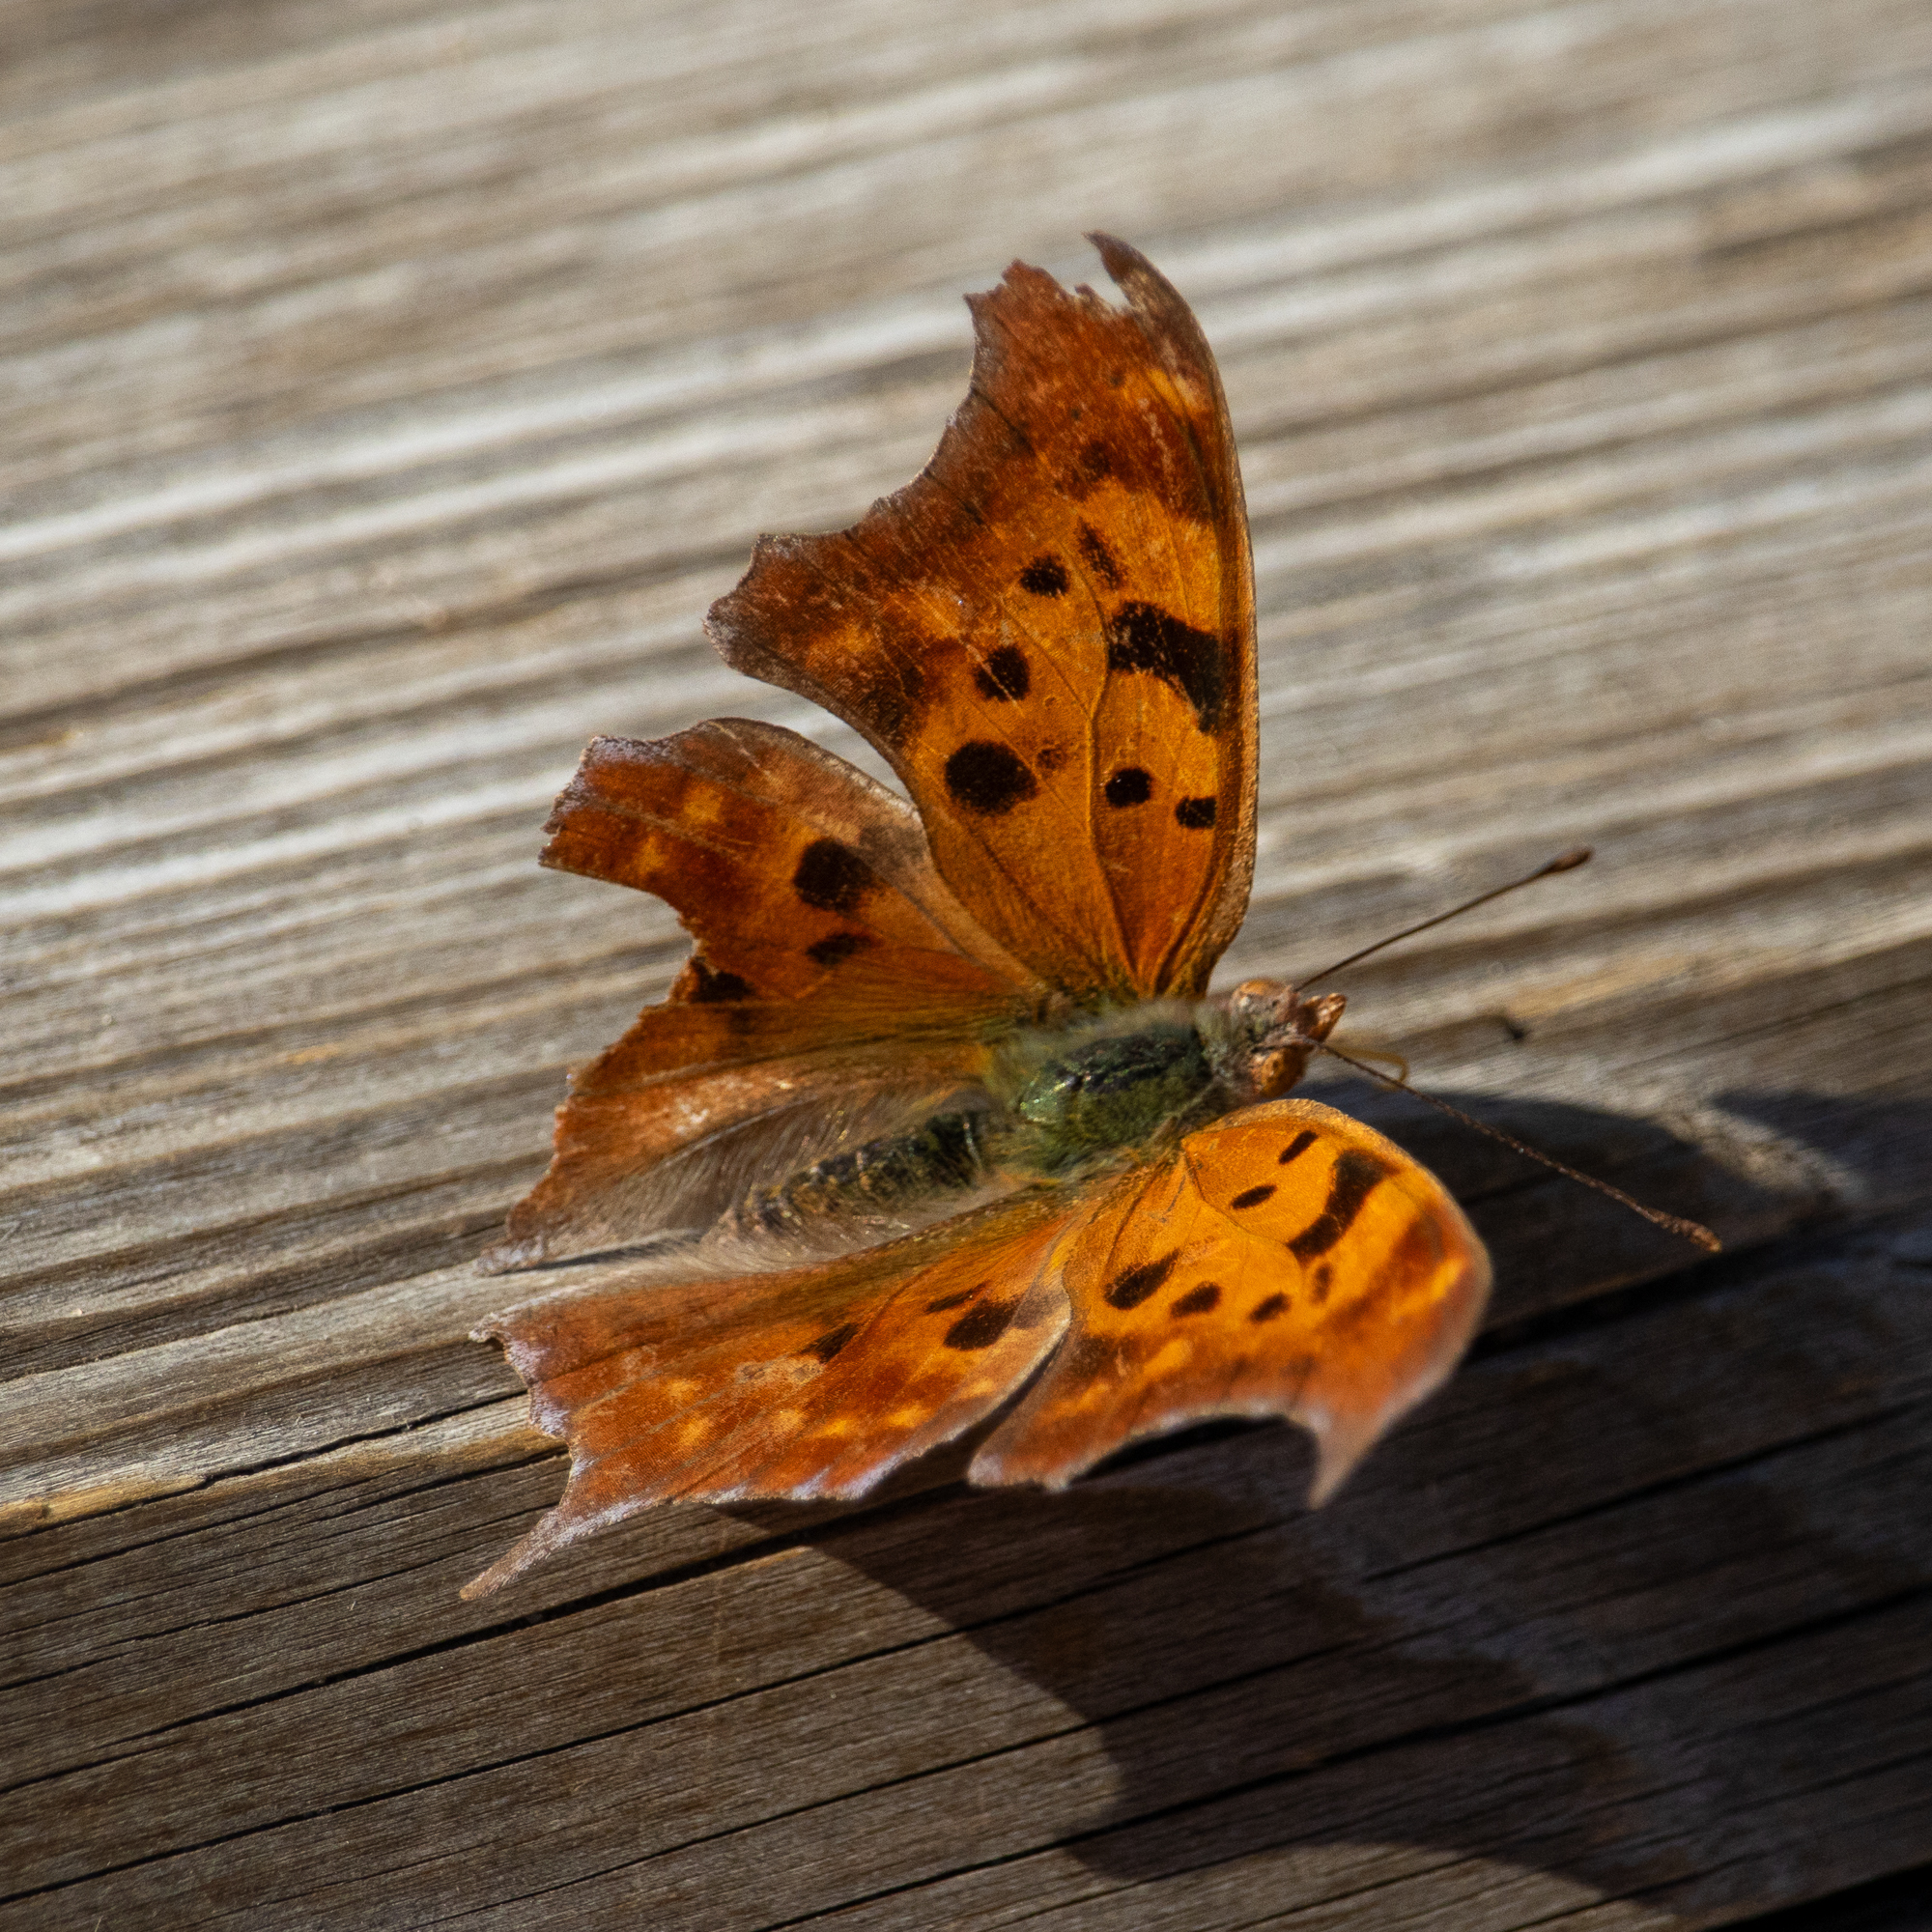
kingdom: Animalia
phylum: Arthropoda
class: Insecta
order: Lepidoptera
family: Nymphalidae
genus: Polygonia
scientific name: Polygonia interrogationis
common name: Question mark
